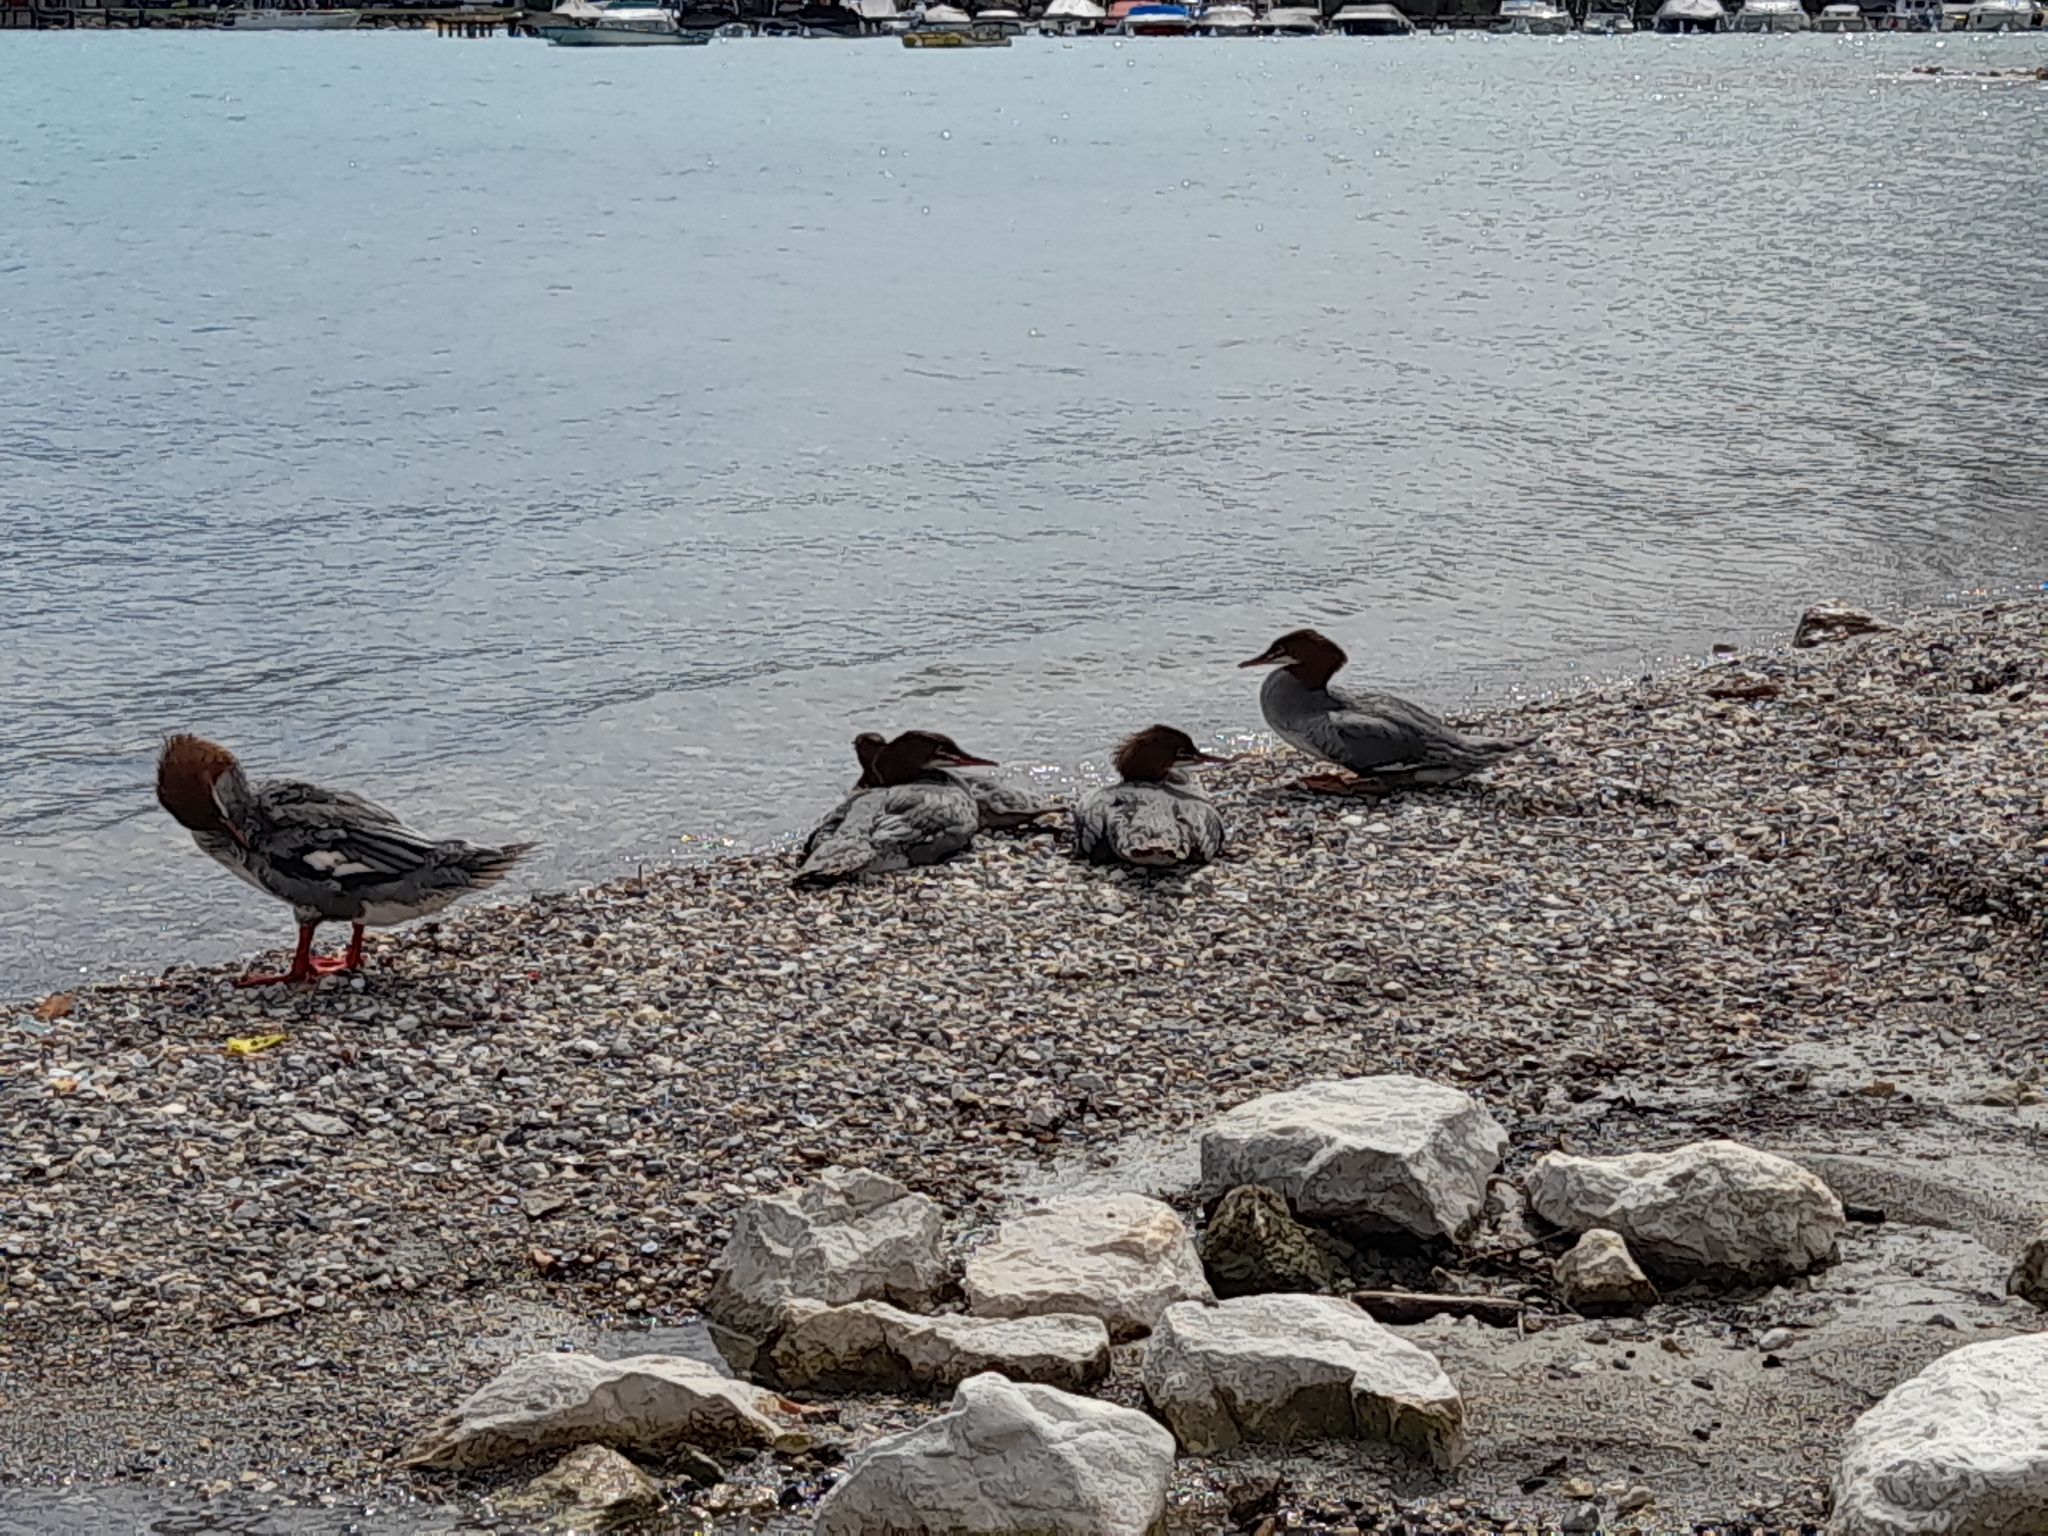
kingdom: Animalia
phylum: Chordata
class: Aves
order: Anseriformes
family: Anatidae
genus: Mergus
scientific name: Mergus merganser
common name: Common merganser
